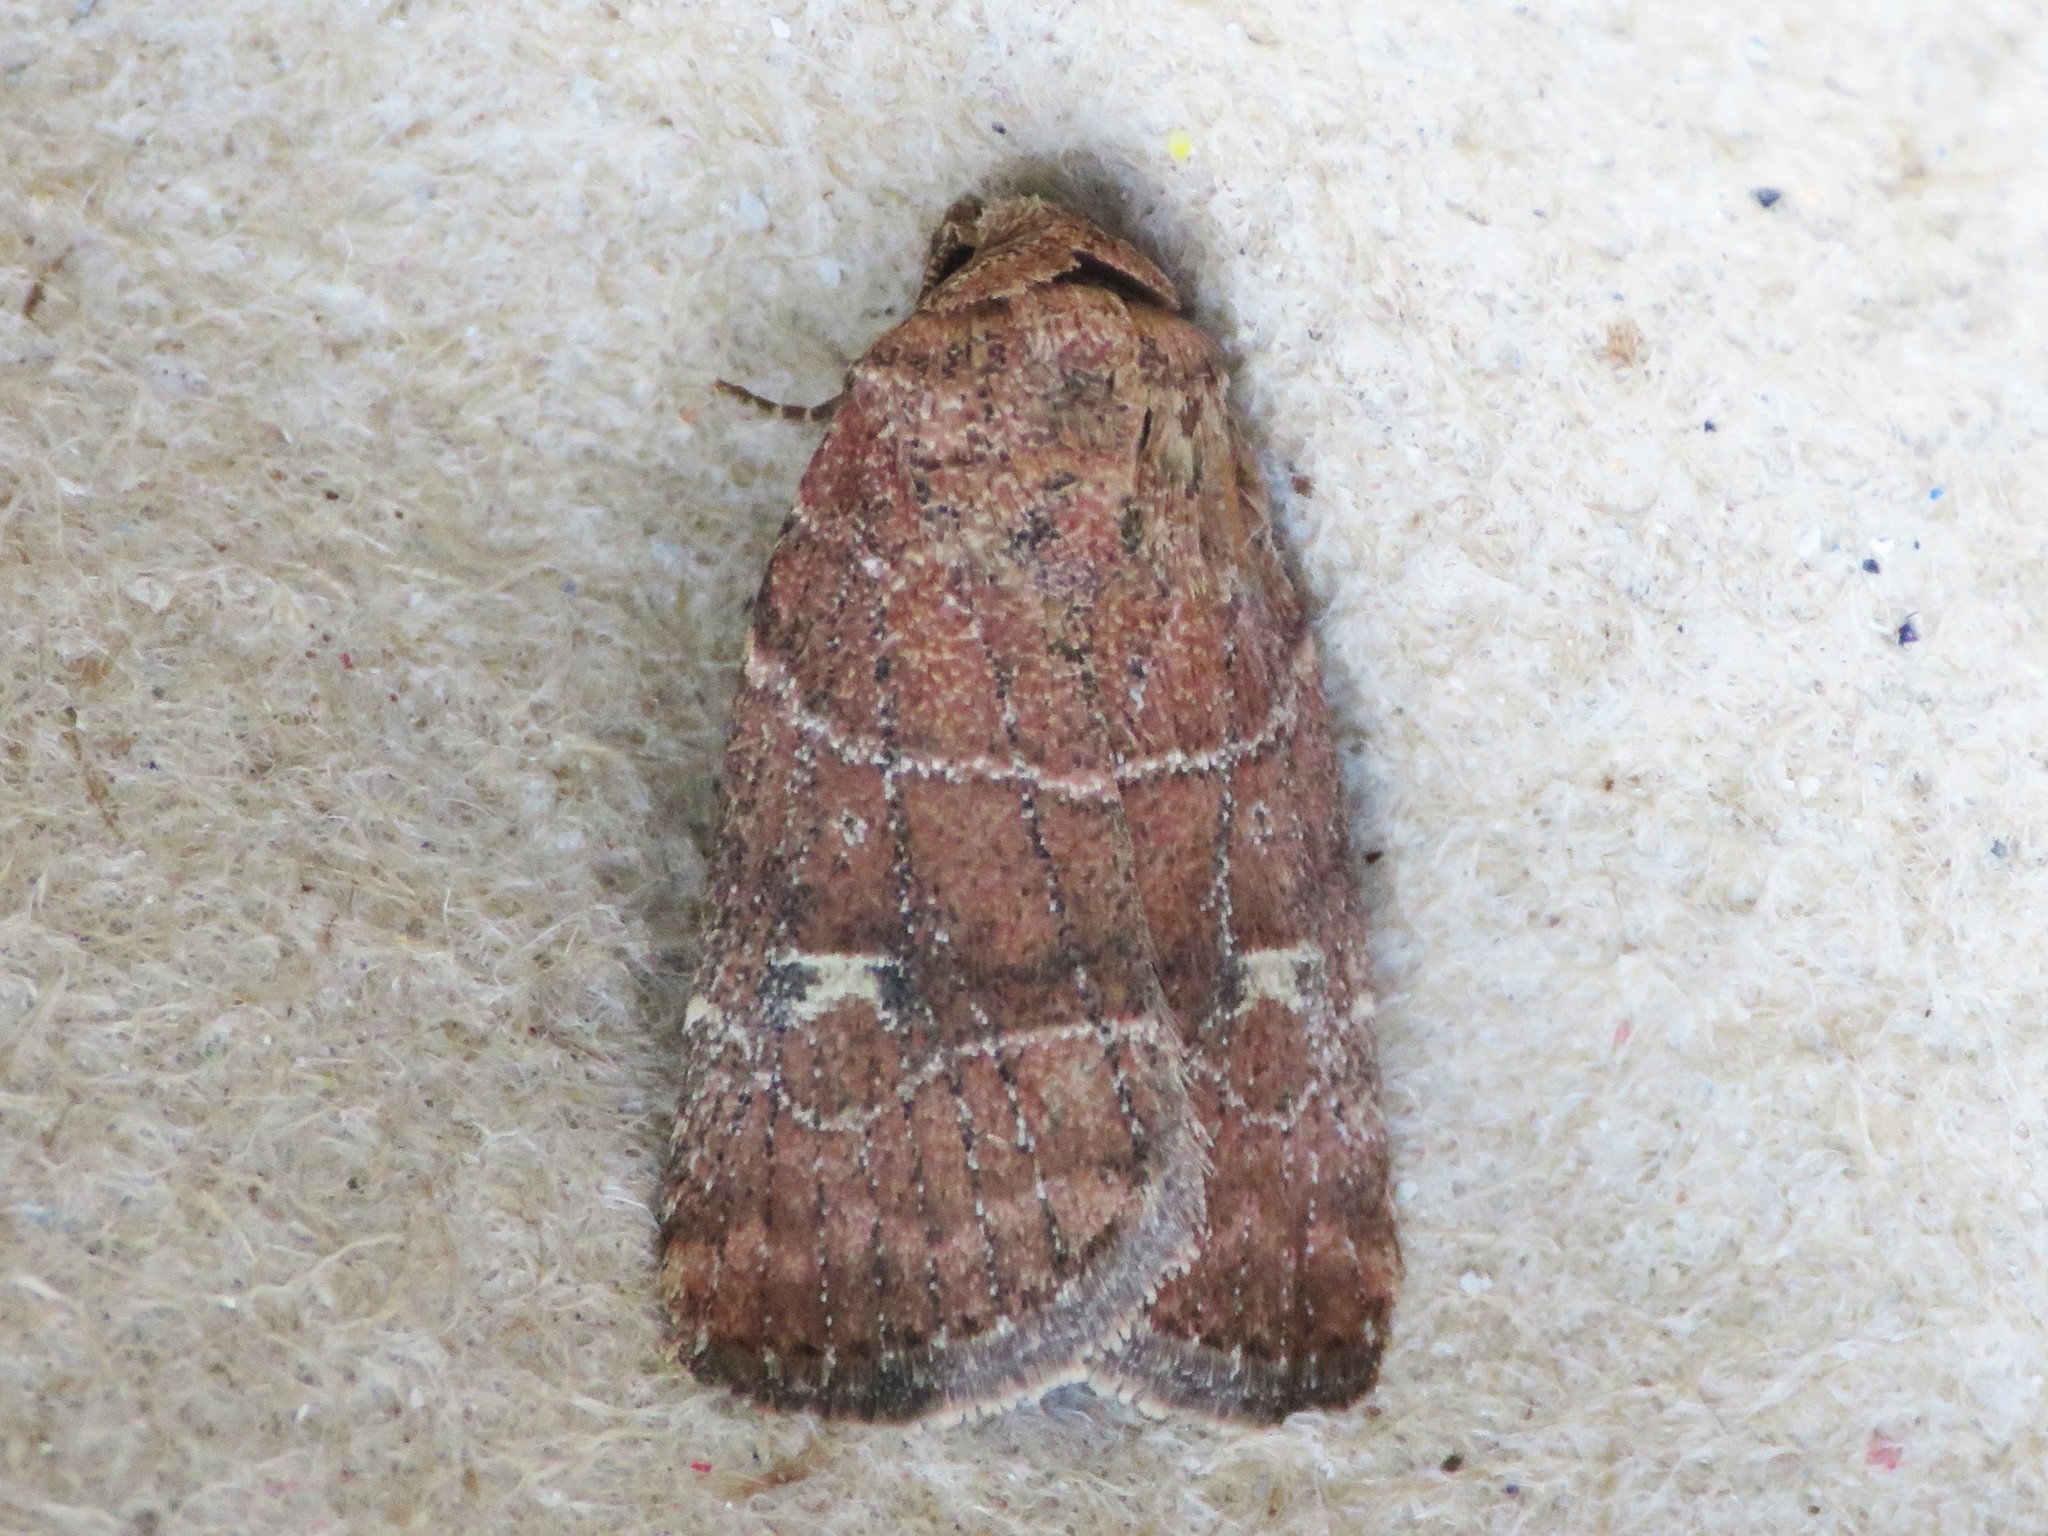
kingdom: Animalia
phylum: Arthropoda
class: Insecta
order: Lepidoptera
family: Noctuidae
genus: Elaphria
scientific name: Elaphria grata
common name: Grateful midget moth
